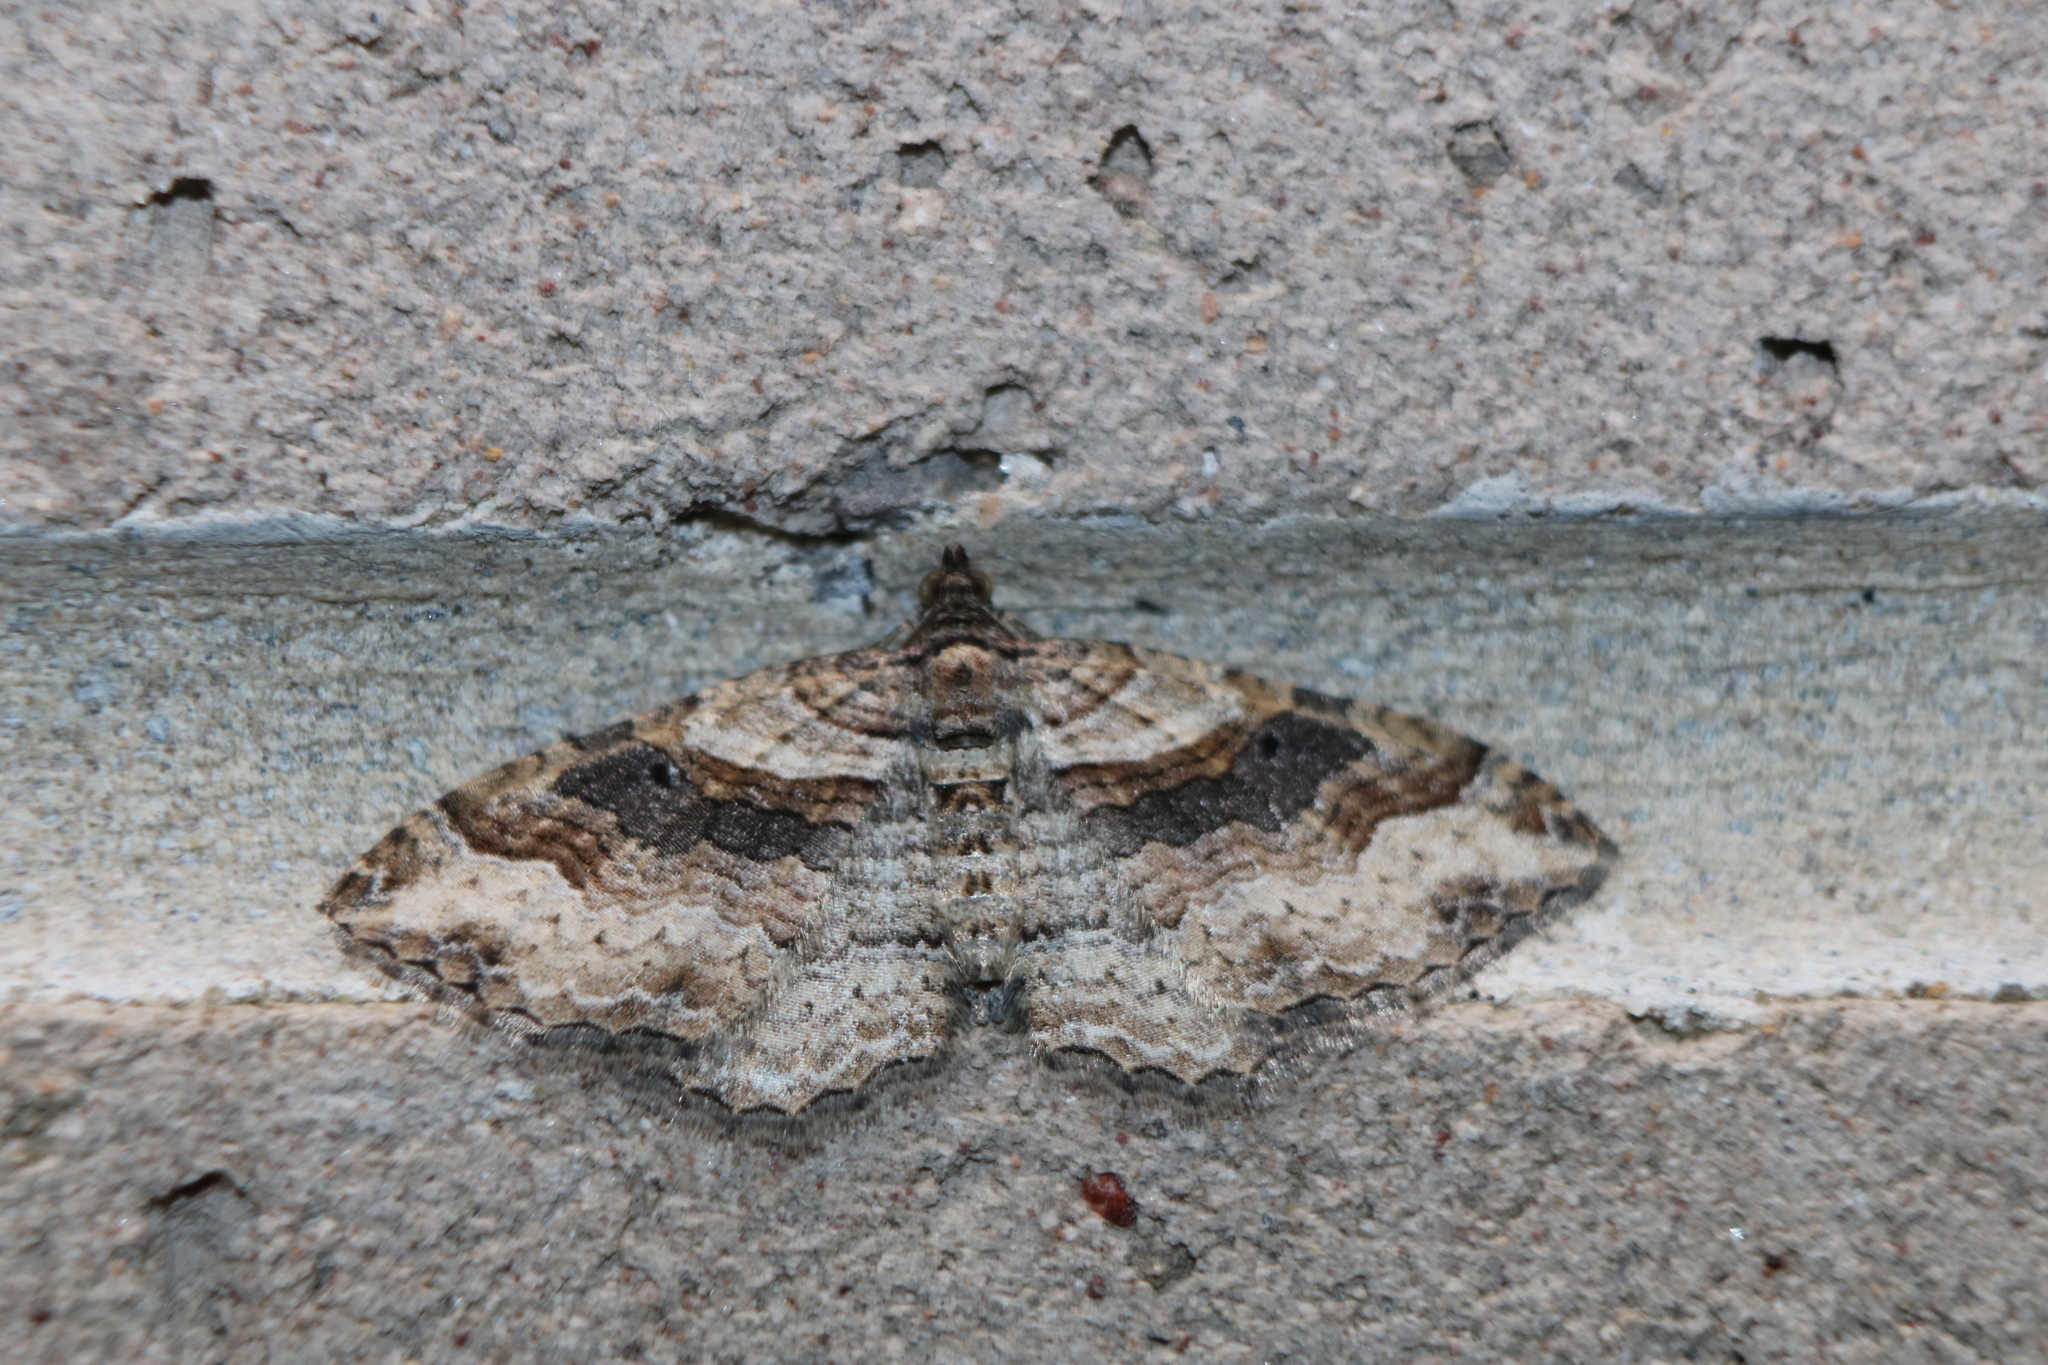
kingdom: Animalia
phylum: Arthropoda
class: Insecta
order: Lepidoptera
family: Geometridae
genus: Costaconvexa
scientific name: Costaconvexa centrostrigaria
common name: Bent-line carpet
